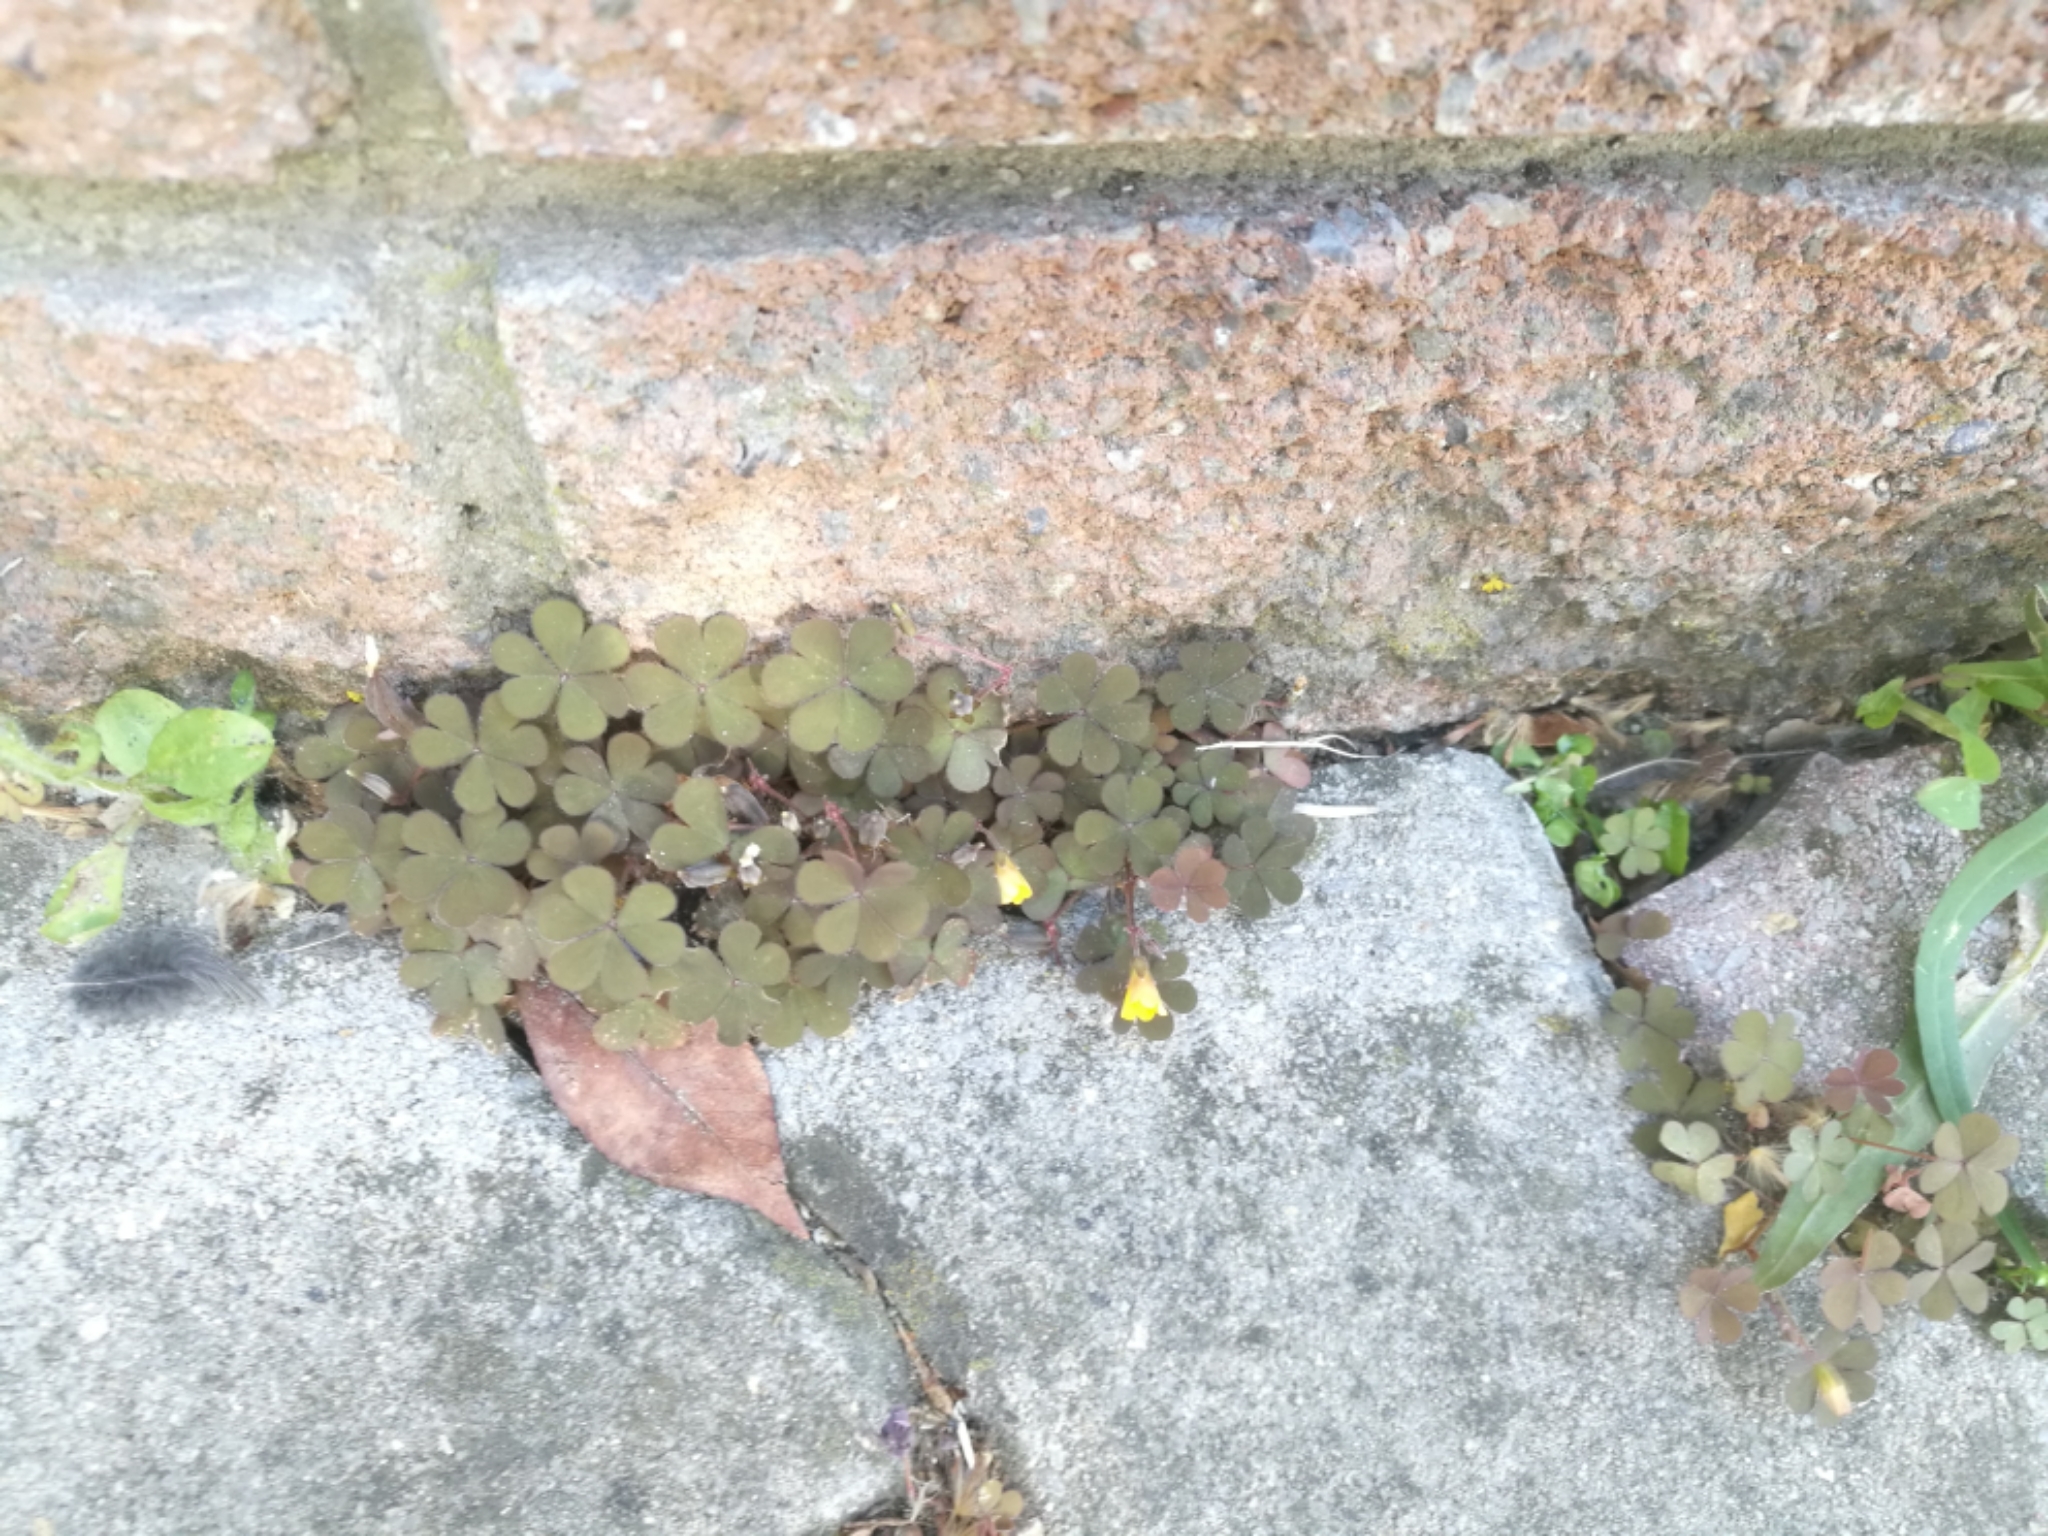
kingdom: Plantae
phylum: Tracheophyta
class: Magnoliopsida
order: Oxalidales
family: Oxalidaceae
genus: Oxalis
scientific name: Oxalis corniculata
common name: Procumbent yellow-sorrel
